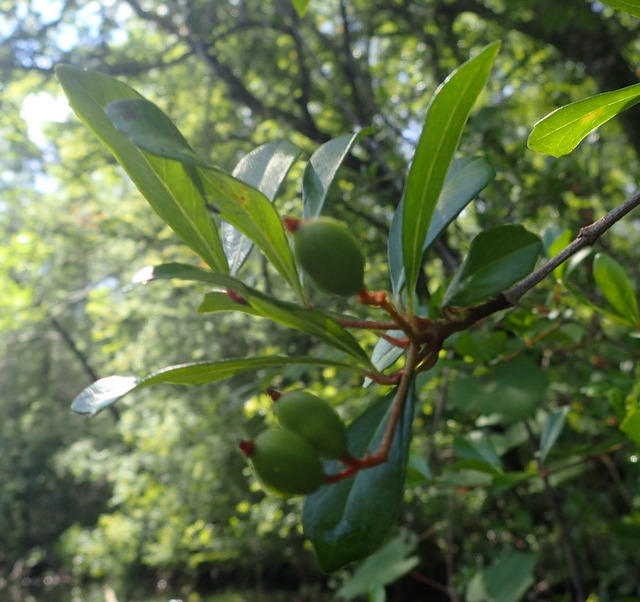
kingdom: Plantae
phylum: Tracheophyta
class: Magnoliopsida
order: Dipsacales
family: Viburnaceae
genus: Viburnum
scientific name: Viburnum obovatum
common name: Walter's viburnum
